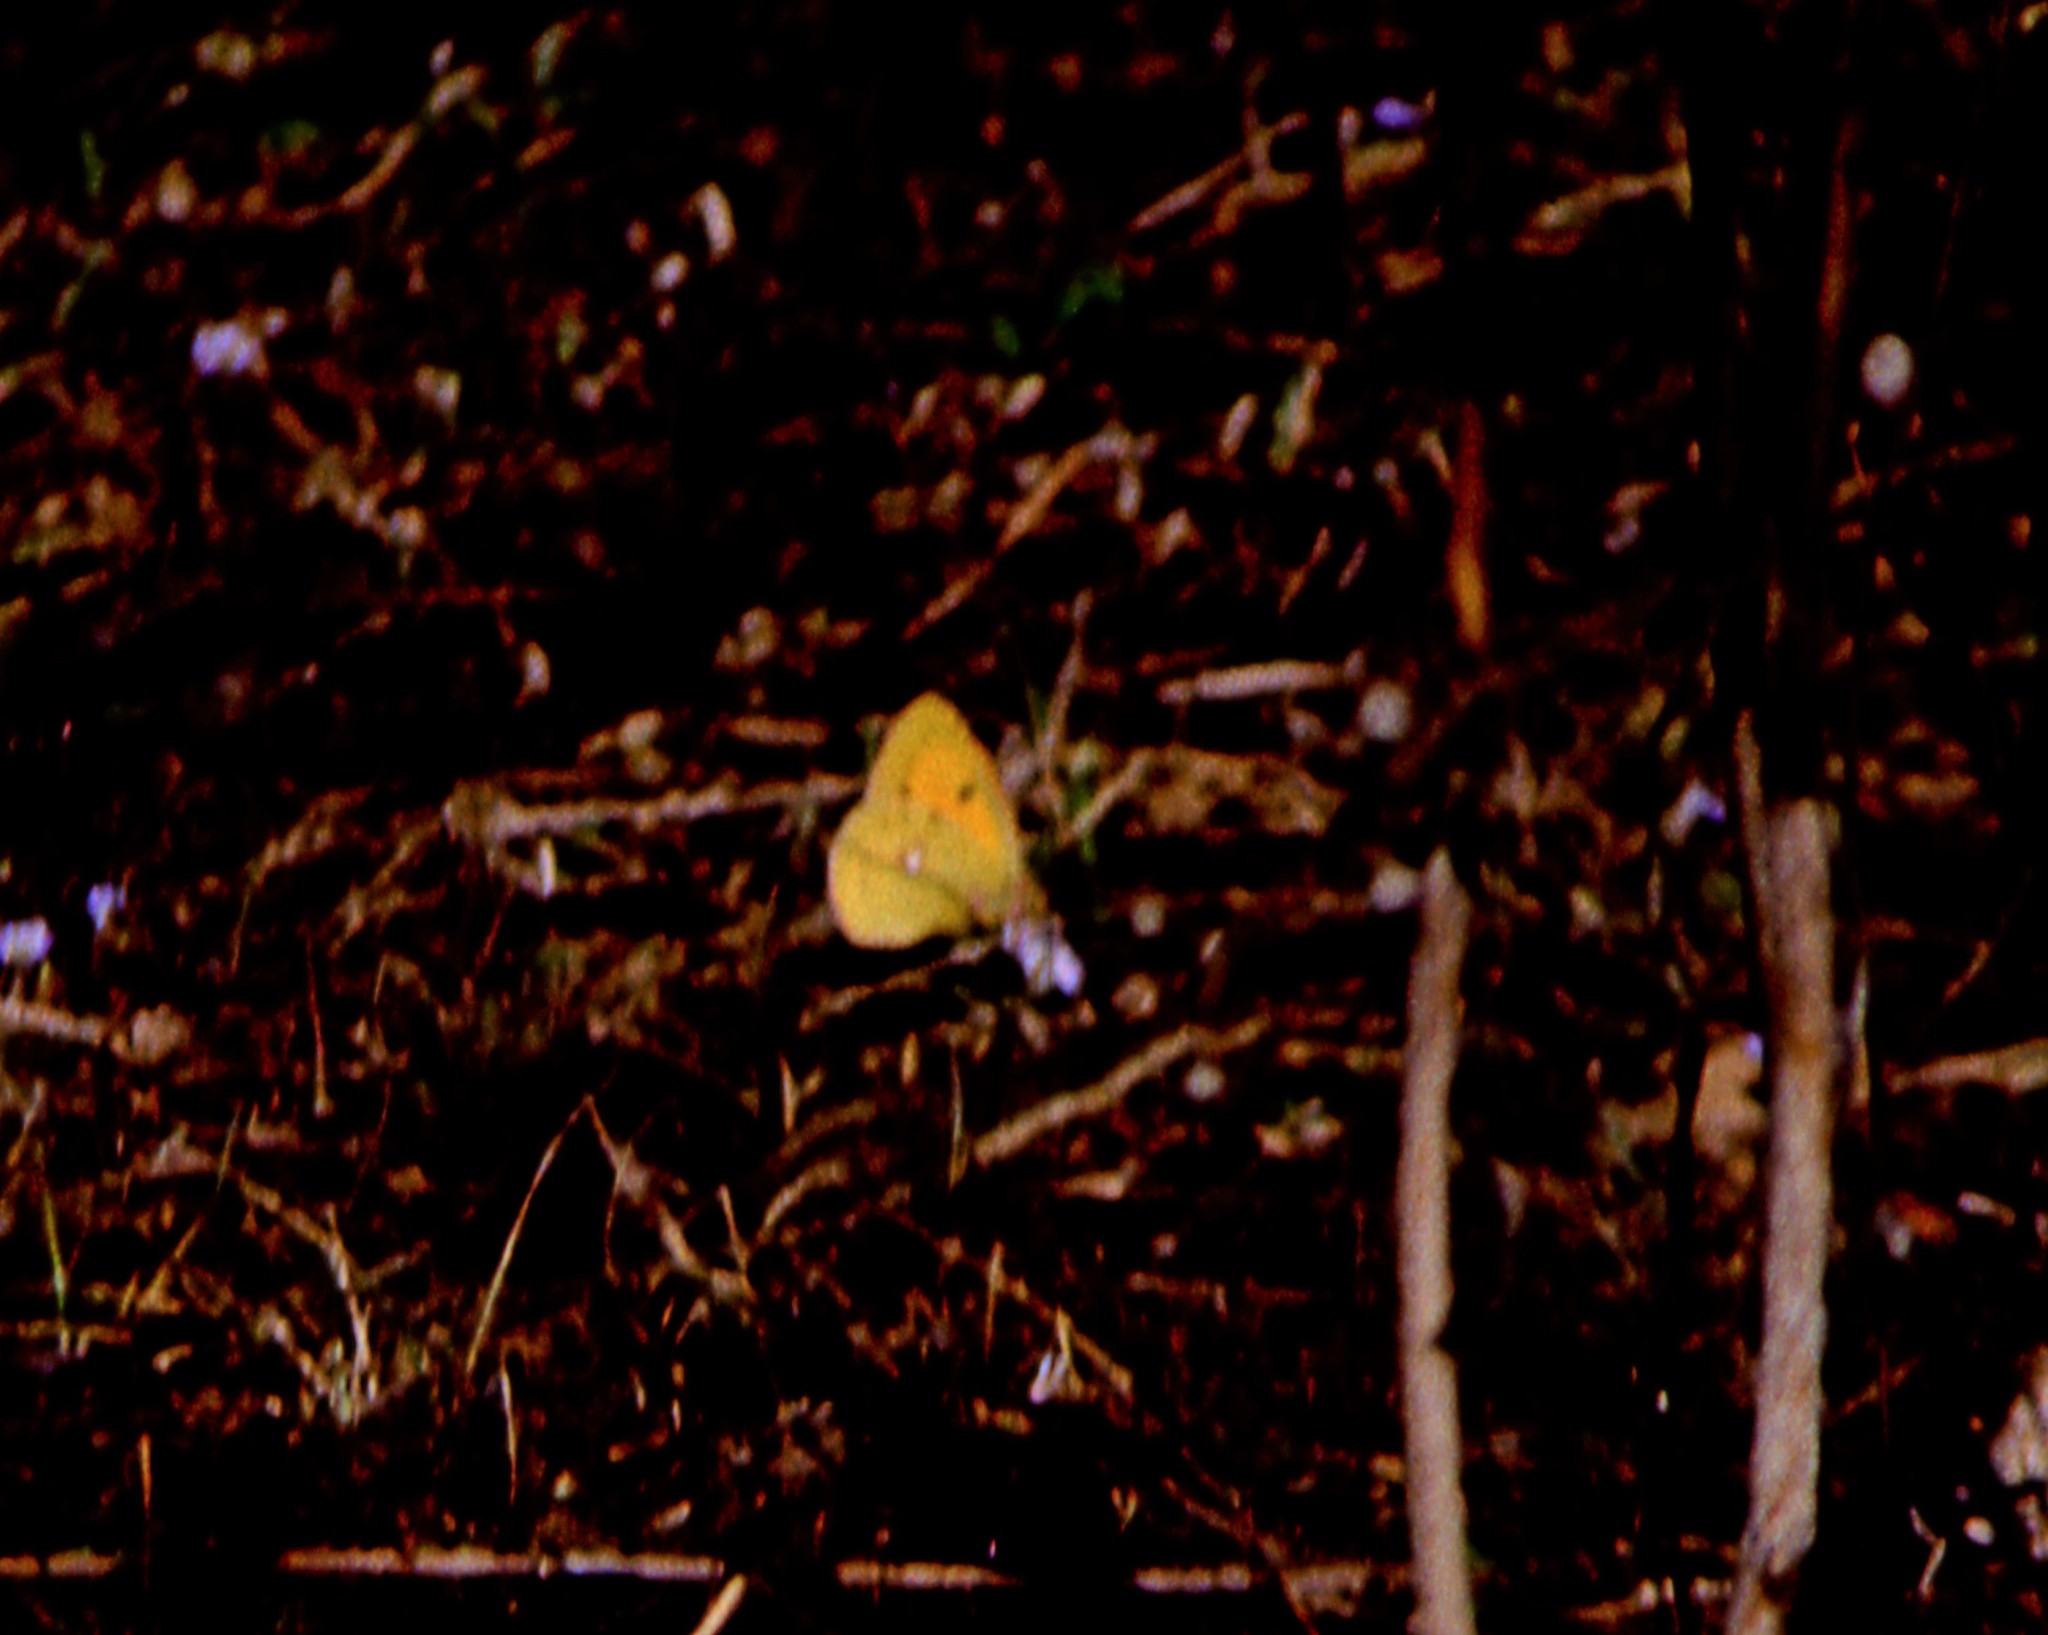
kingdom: Animalia
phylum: Arthropoda
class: Insecta
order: Lepidoptera
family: Pieridae
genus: Colias
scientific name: Colias fieldii
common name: Dark clouded yellow
